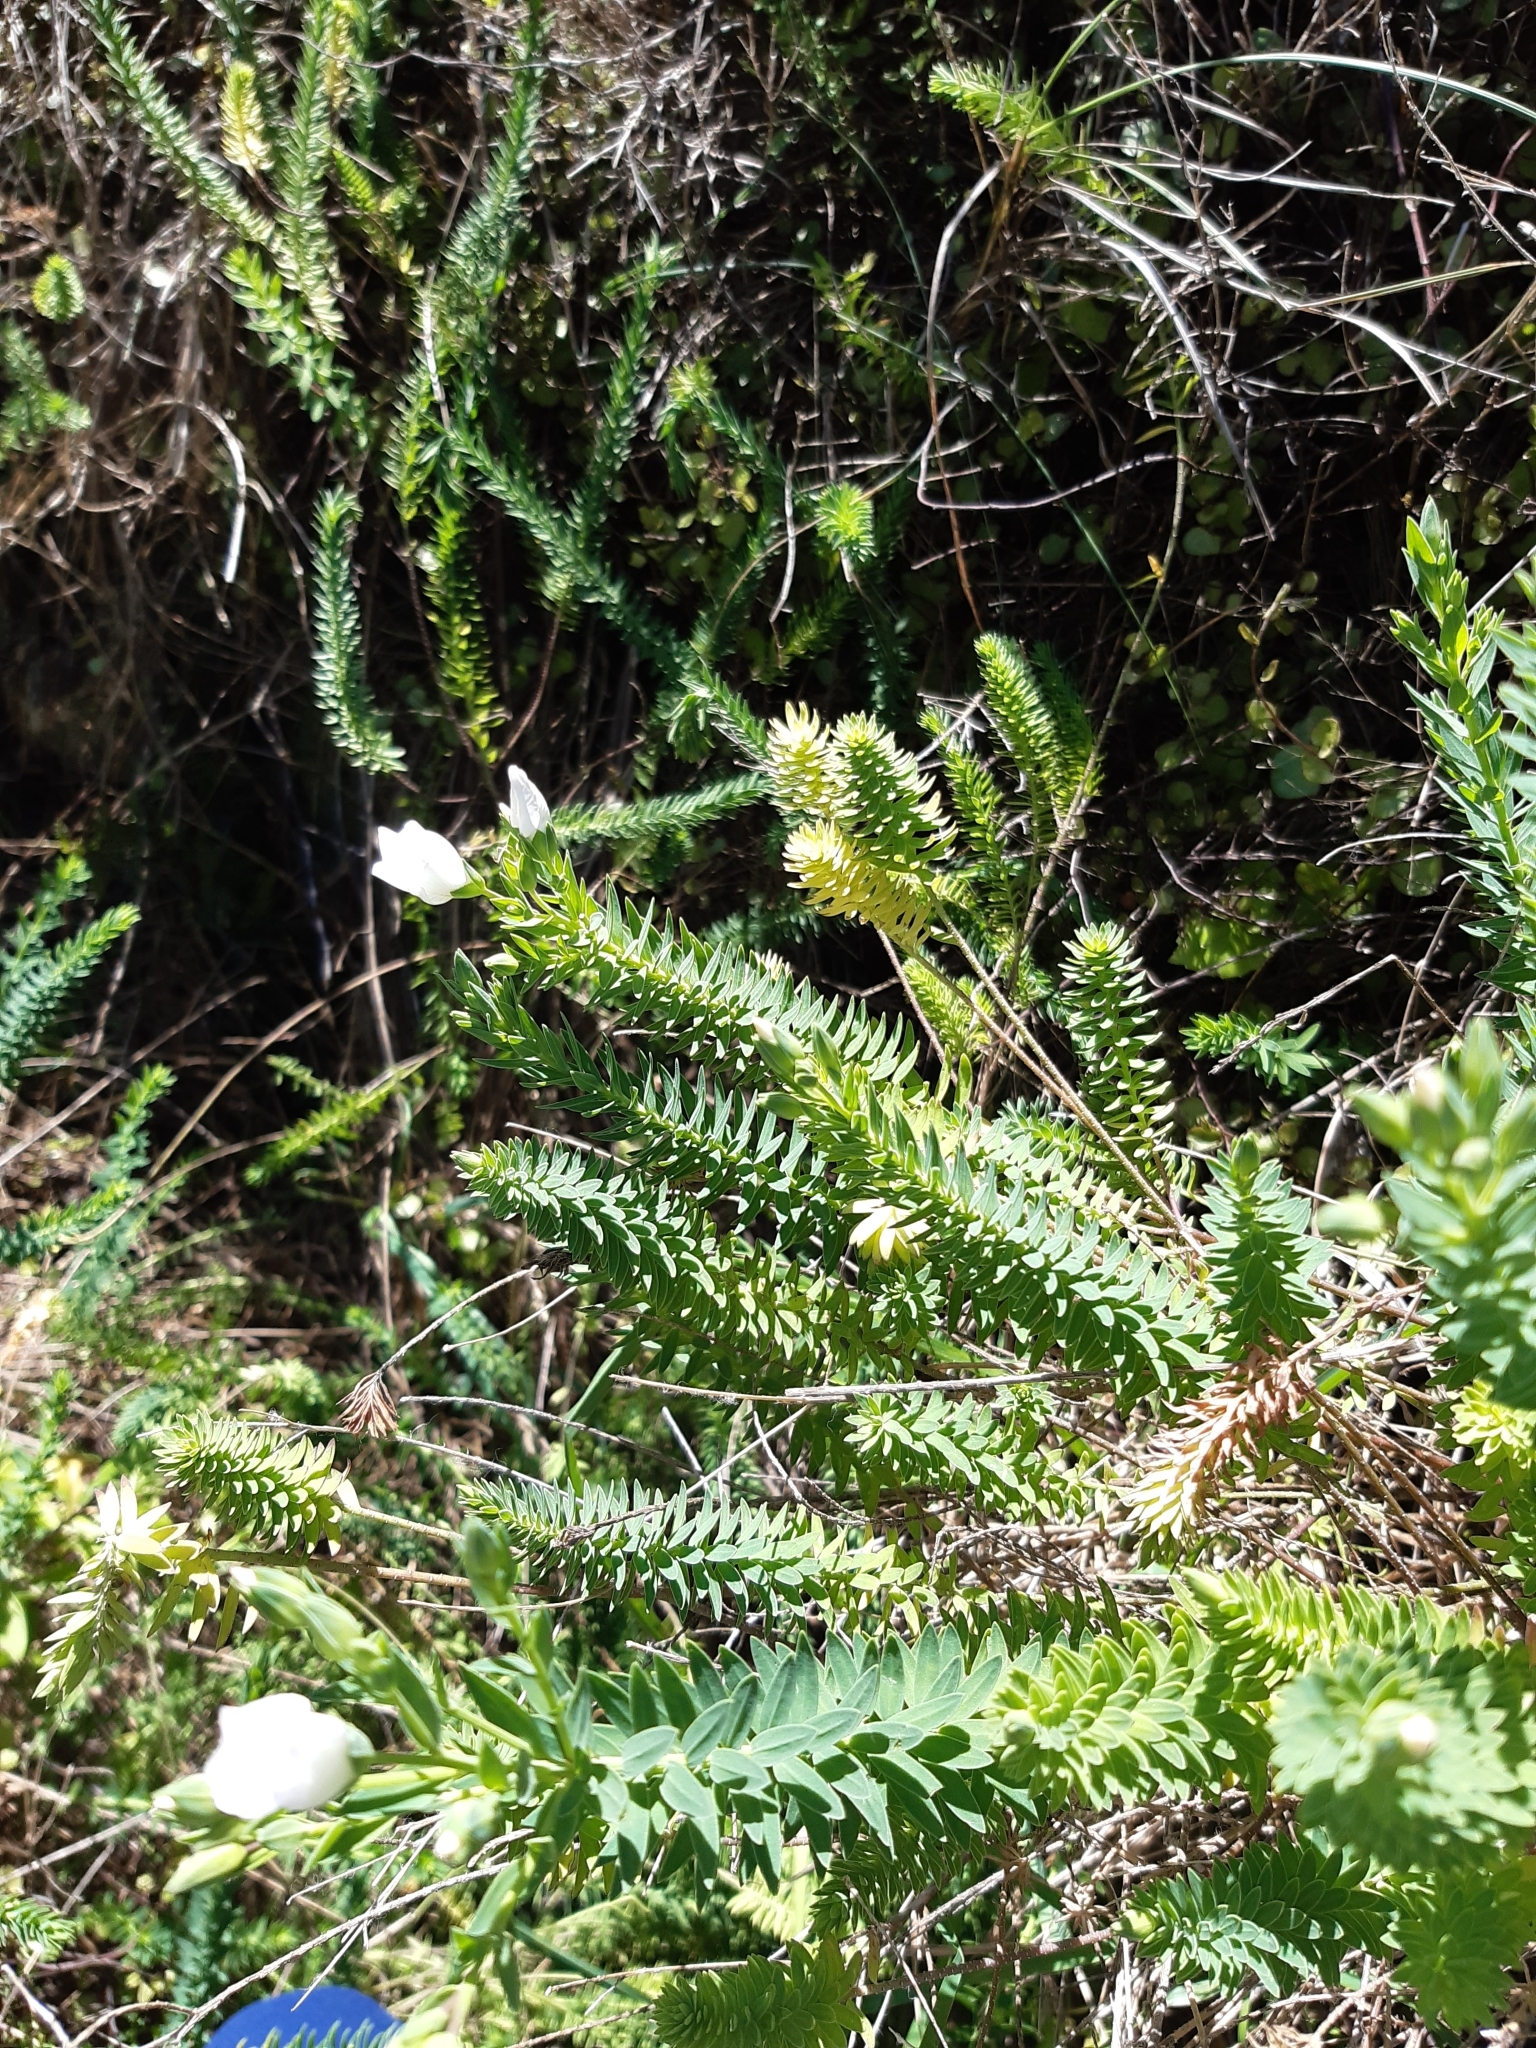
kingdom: Plantae
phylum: Tracheophyta
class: Magnoliopsida
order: Malpighiales
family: Linaceae
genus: Linum
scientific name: Linum monogynum
